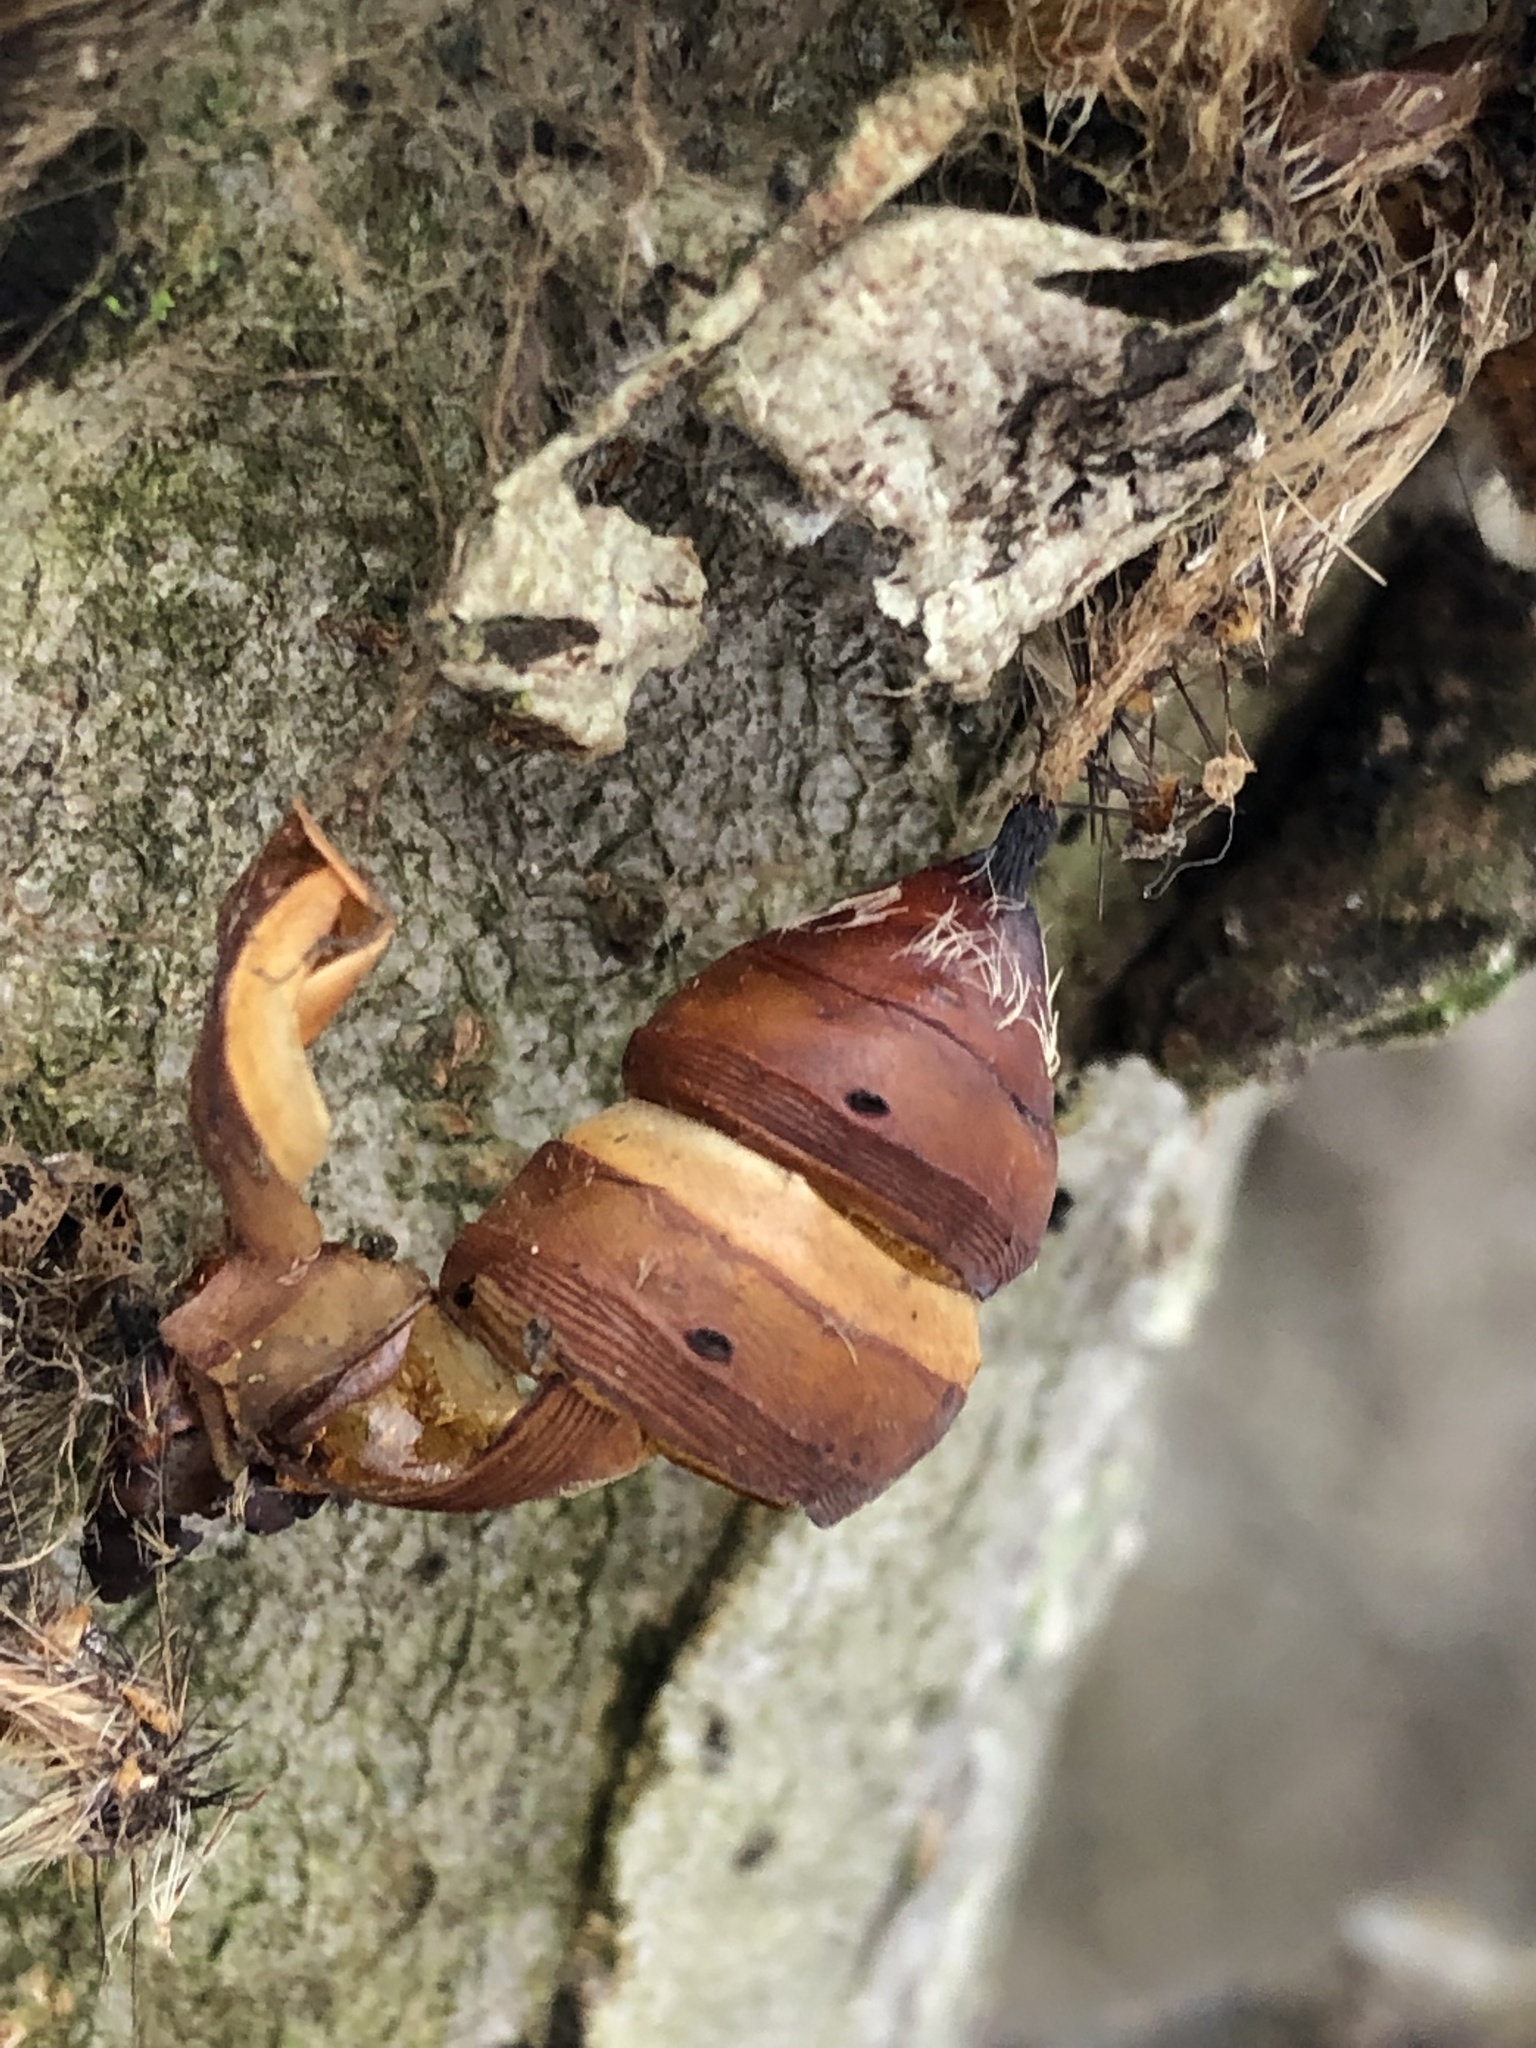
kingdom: Animalia
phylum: Arthropoda
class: Insecta
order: Lepidoptera
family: Erebidae
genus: Lymantria
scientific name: Lymantria dispar
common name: Gypsy moth
